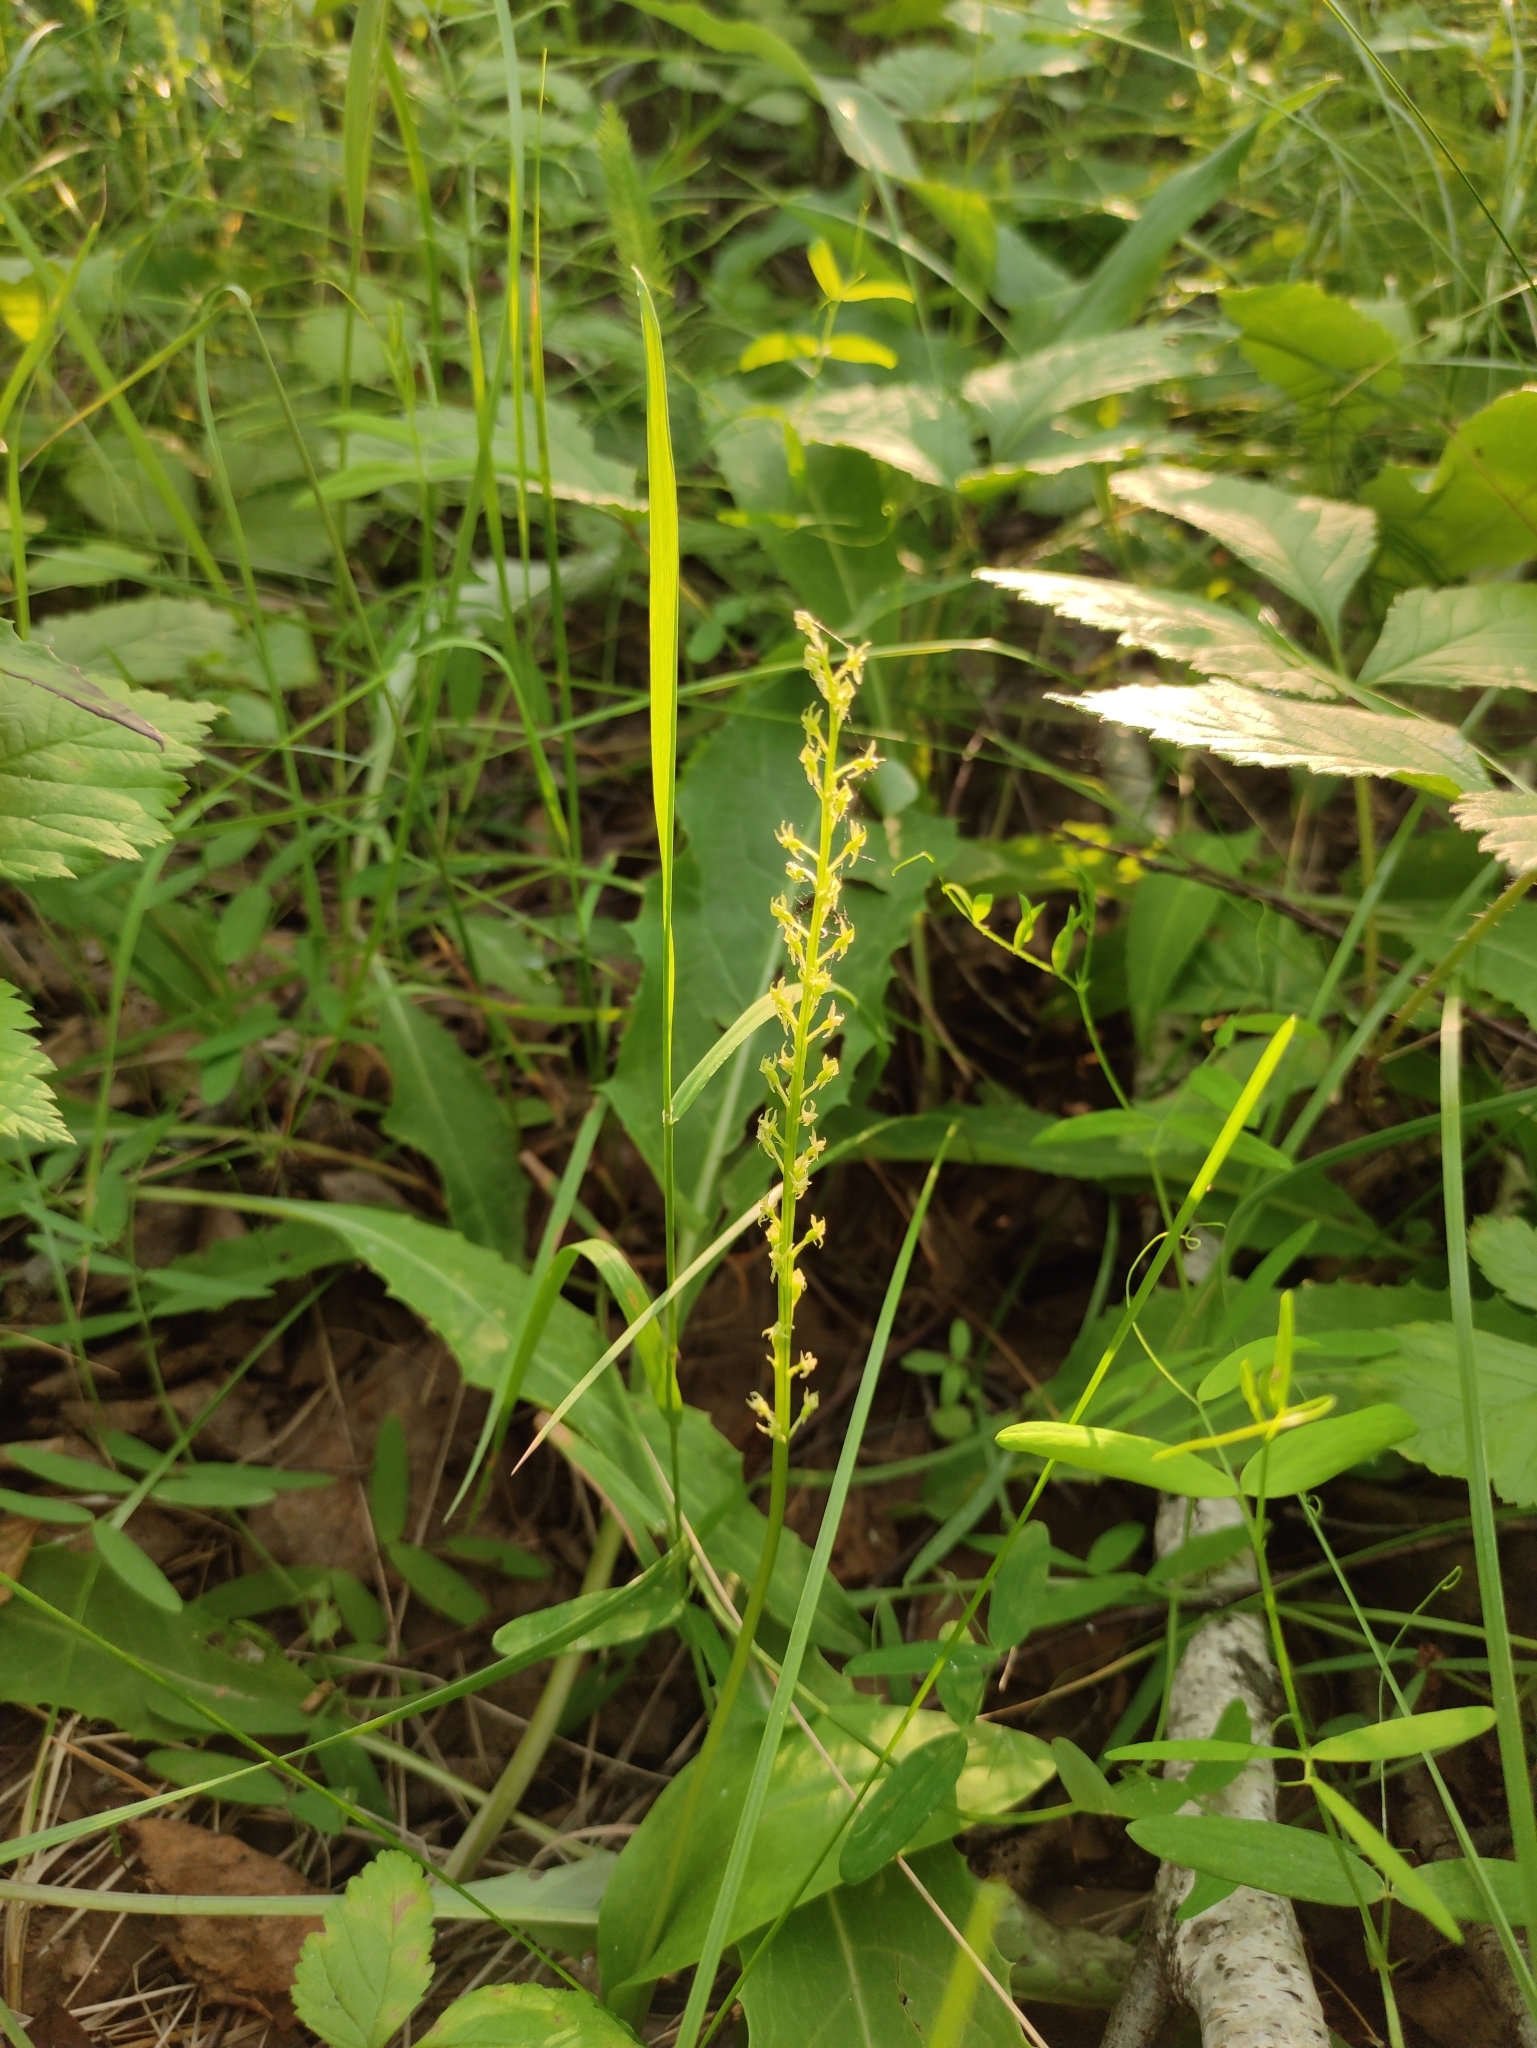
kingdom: Plantae
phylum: Tracheophyta
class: Liliopsida
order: Asparagales
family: Orchidaceae
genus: Malaxis
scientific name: Malaxis monophyllos
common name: White adder's-mouth
